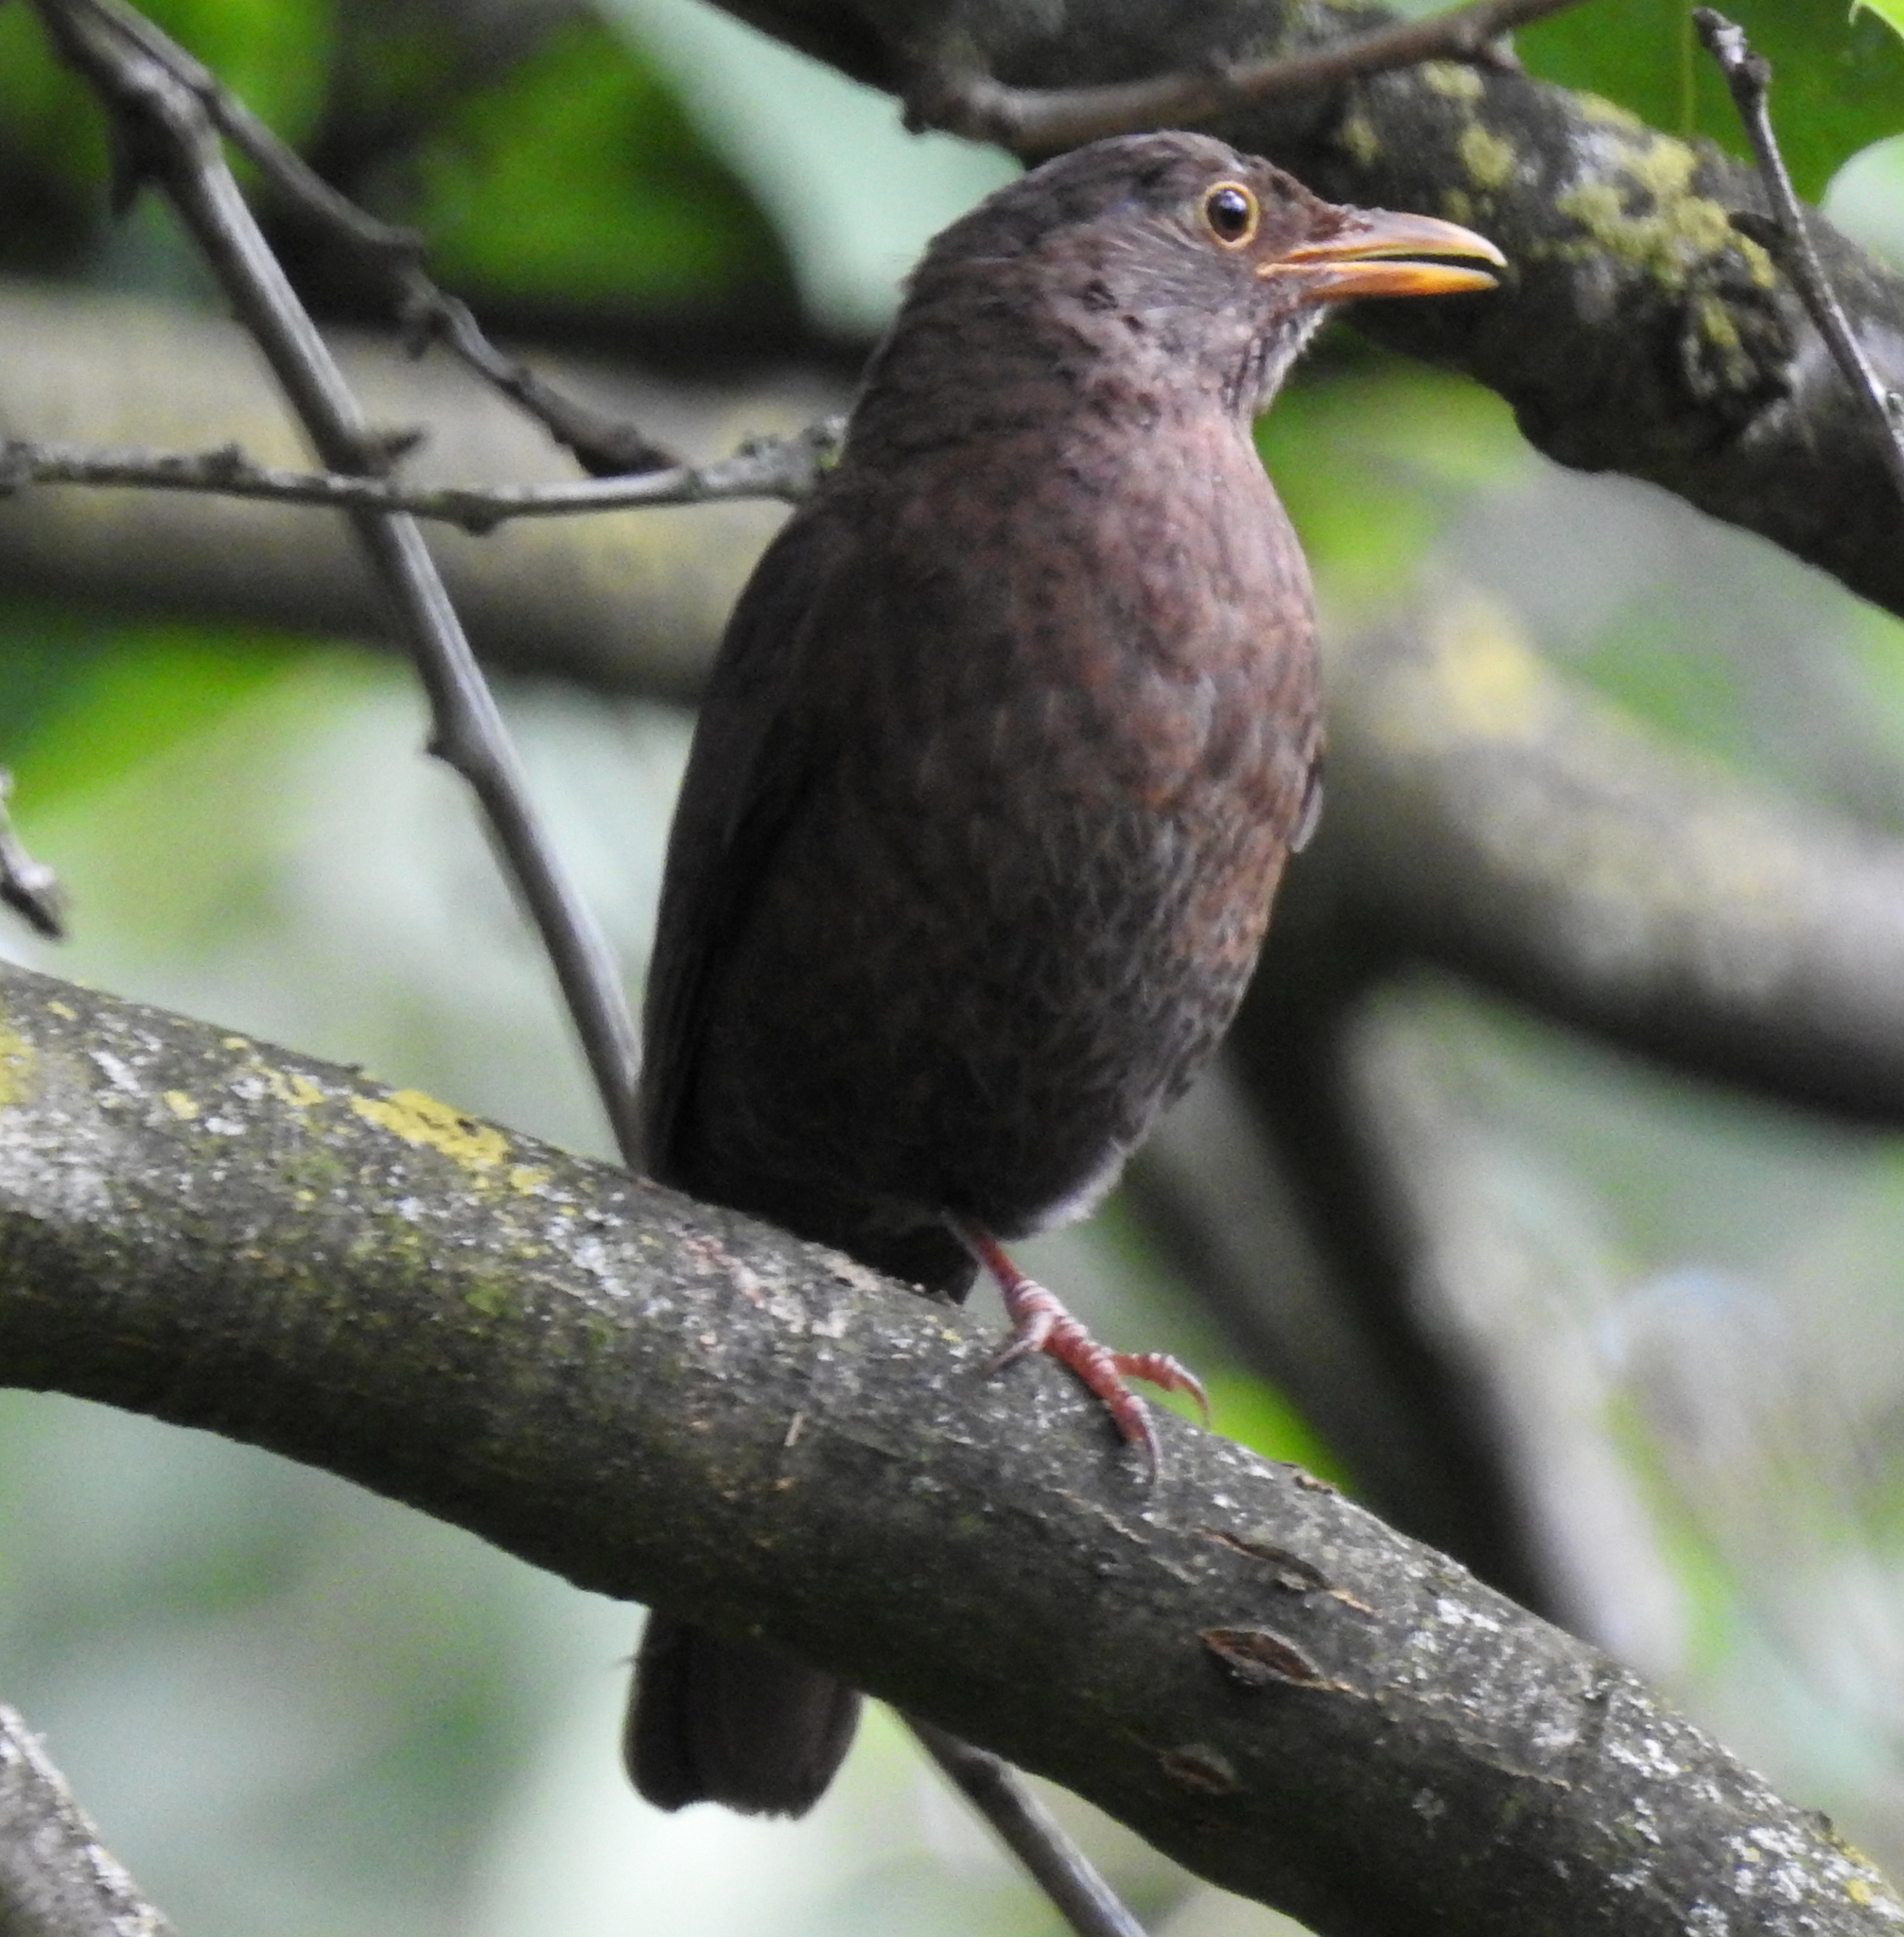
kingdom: Animalia
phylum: Chordata
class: Aves
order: Passeriformes
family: Turdidae
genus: Turdus
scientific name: Turdus merula
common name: Common blackbird
